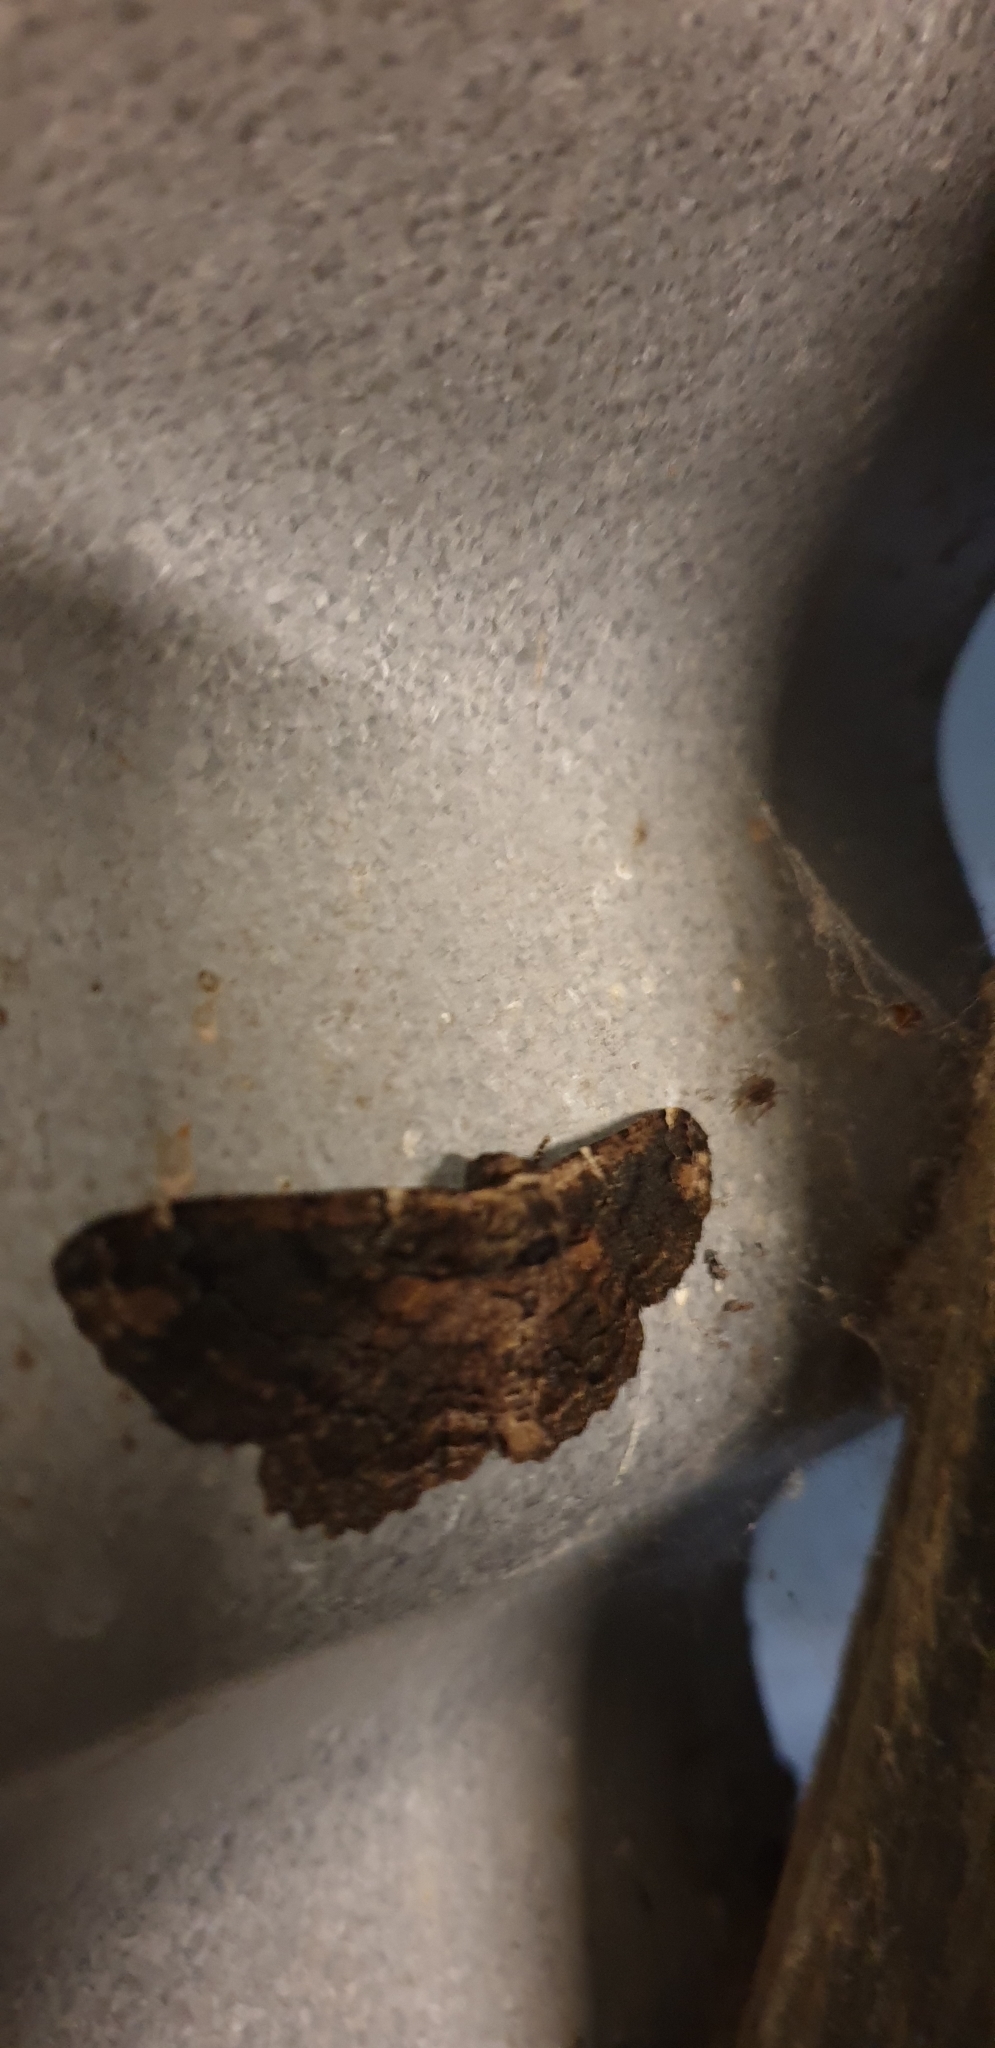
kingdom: Animalia
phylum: Arthropoda
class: Insecta
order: Lepidoptera
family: Geometridae
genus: Pholodes
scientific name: Pholodes sinistraria
